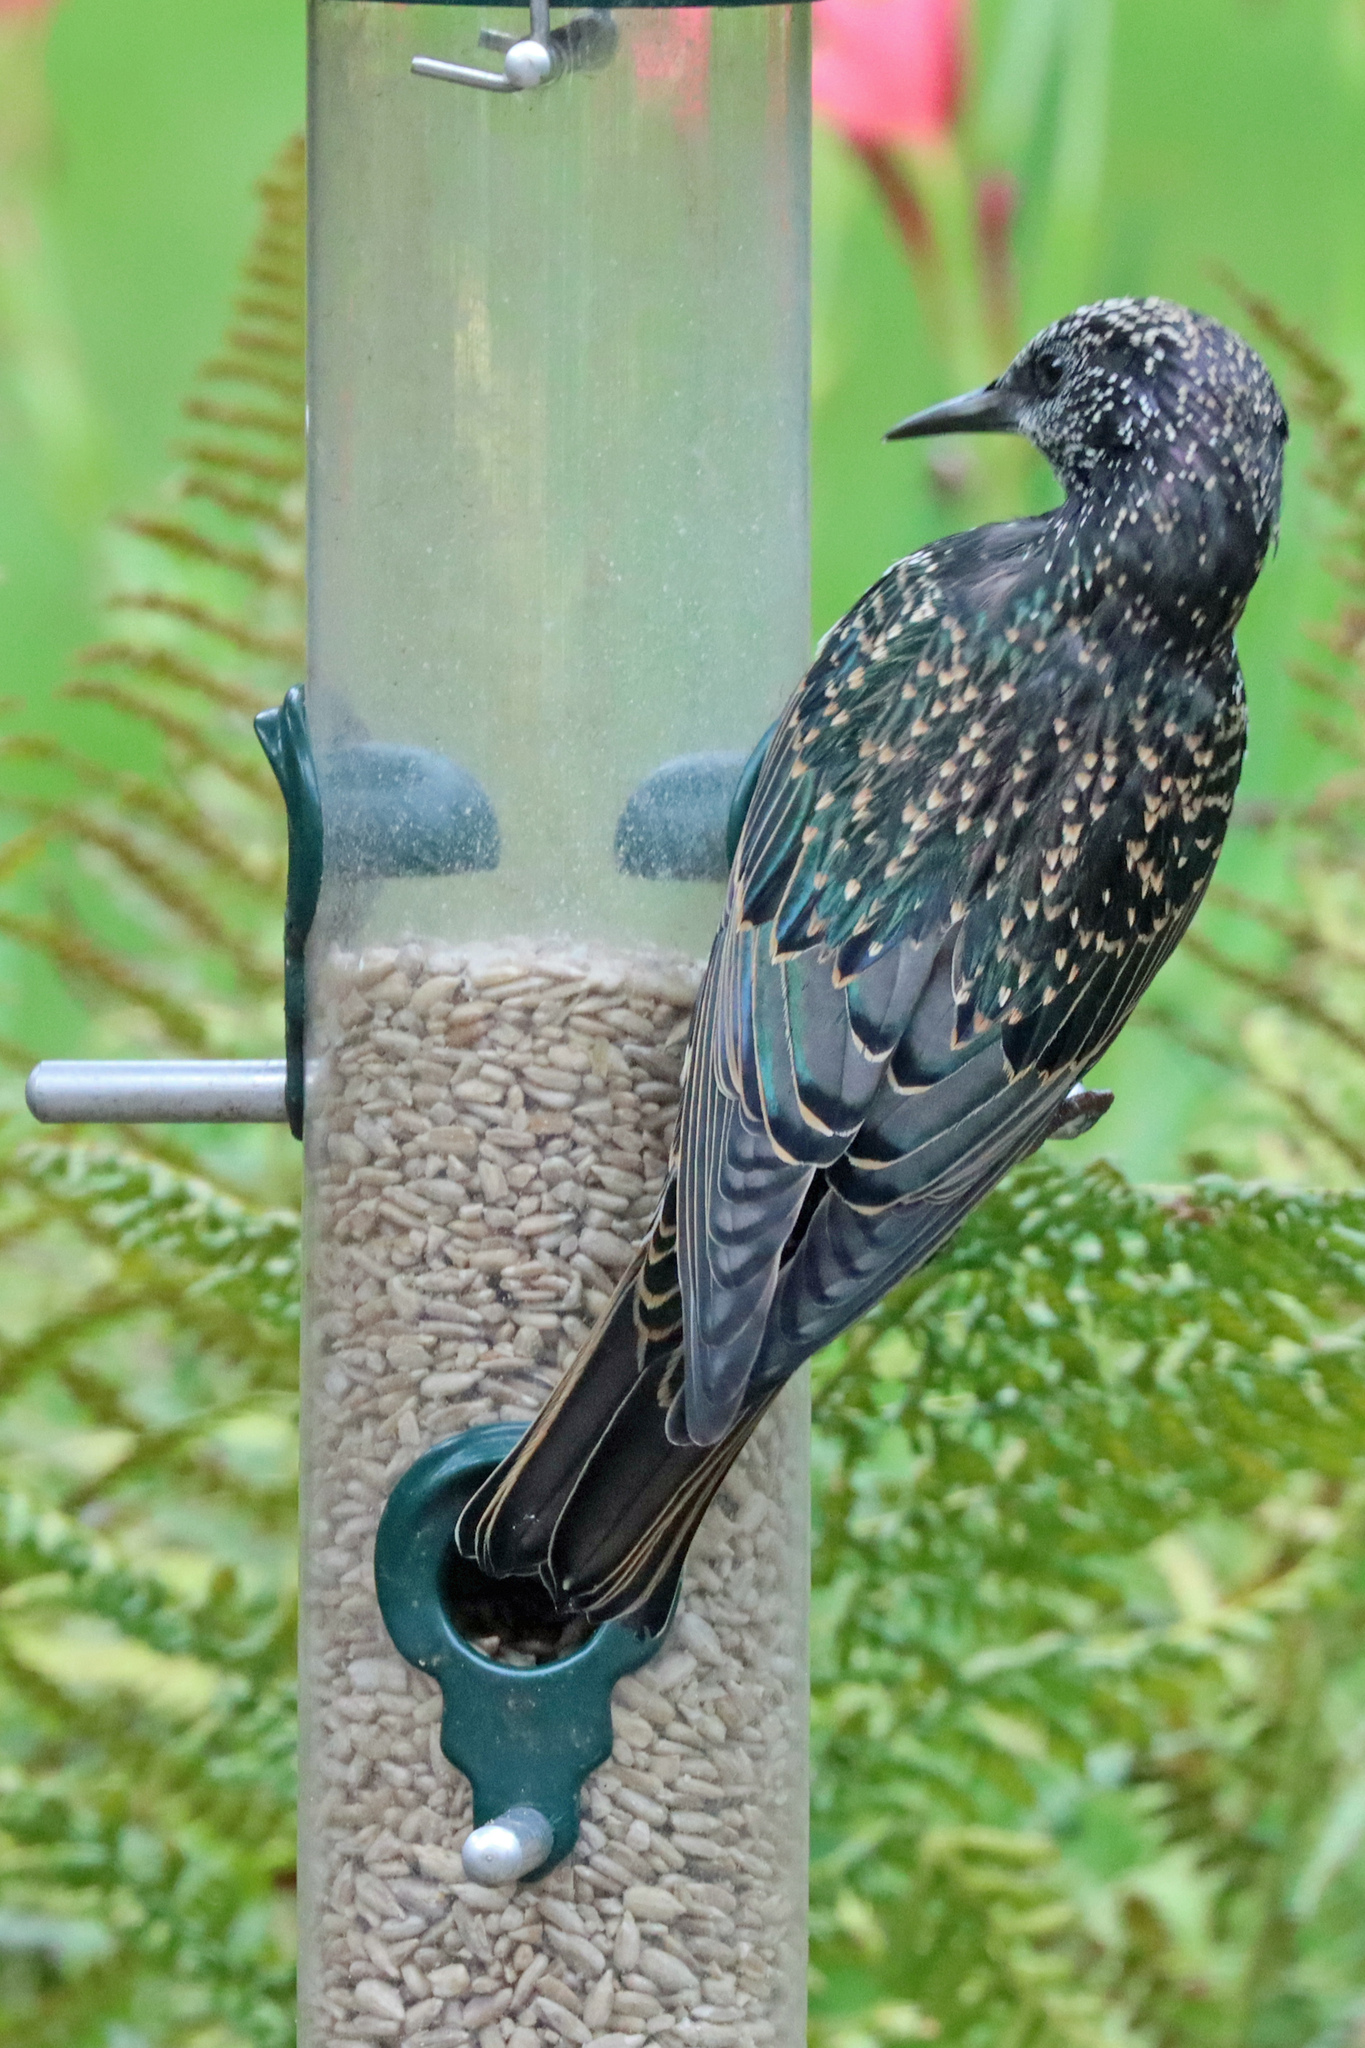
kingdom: Animalia
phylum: Chordata
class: Aves
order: Passeriformes
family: Sturnidae
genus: Sturnus
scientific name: Sturnus vulgaris
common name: Common starling
